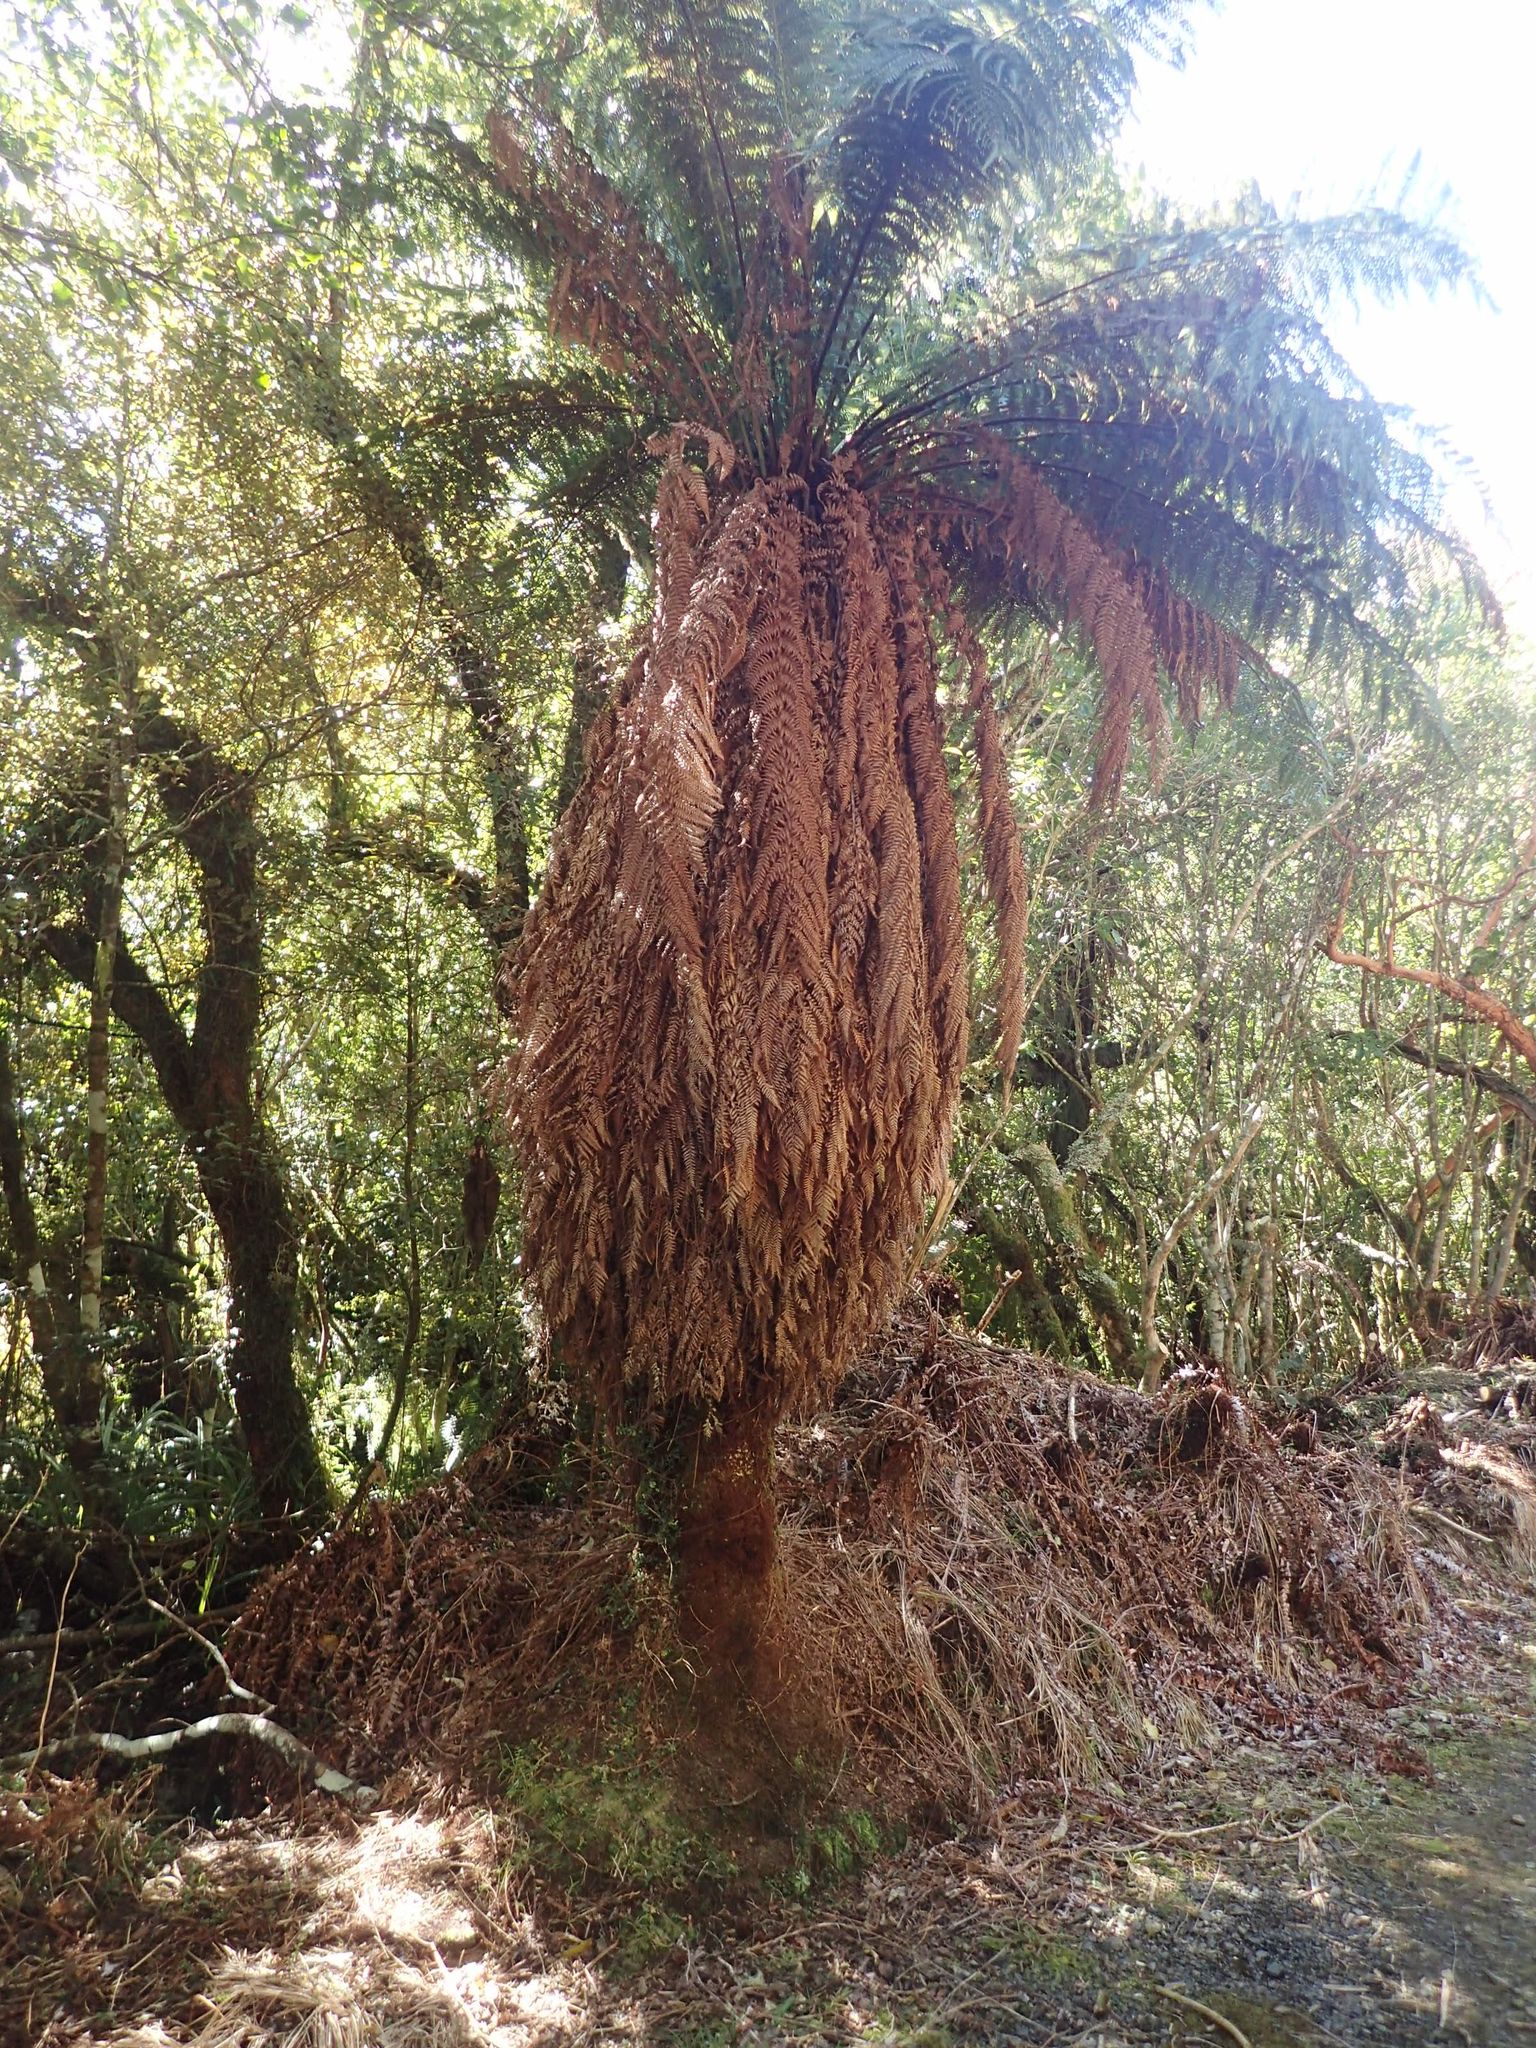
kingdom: Plantae
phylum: Tracheophyta
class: Polypodiopsida
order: Cyatheales
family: Dicksoniaceae
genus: Dicksonia
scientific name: Dicksonia fibrosa
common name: Golden tree fern
